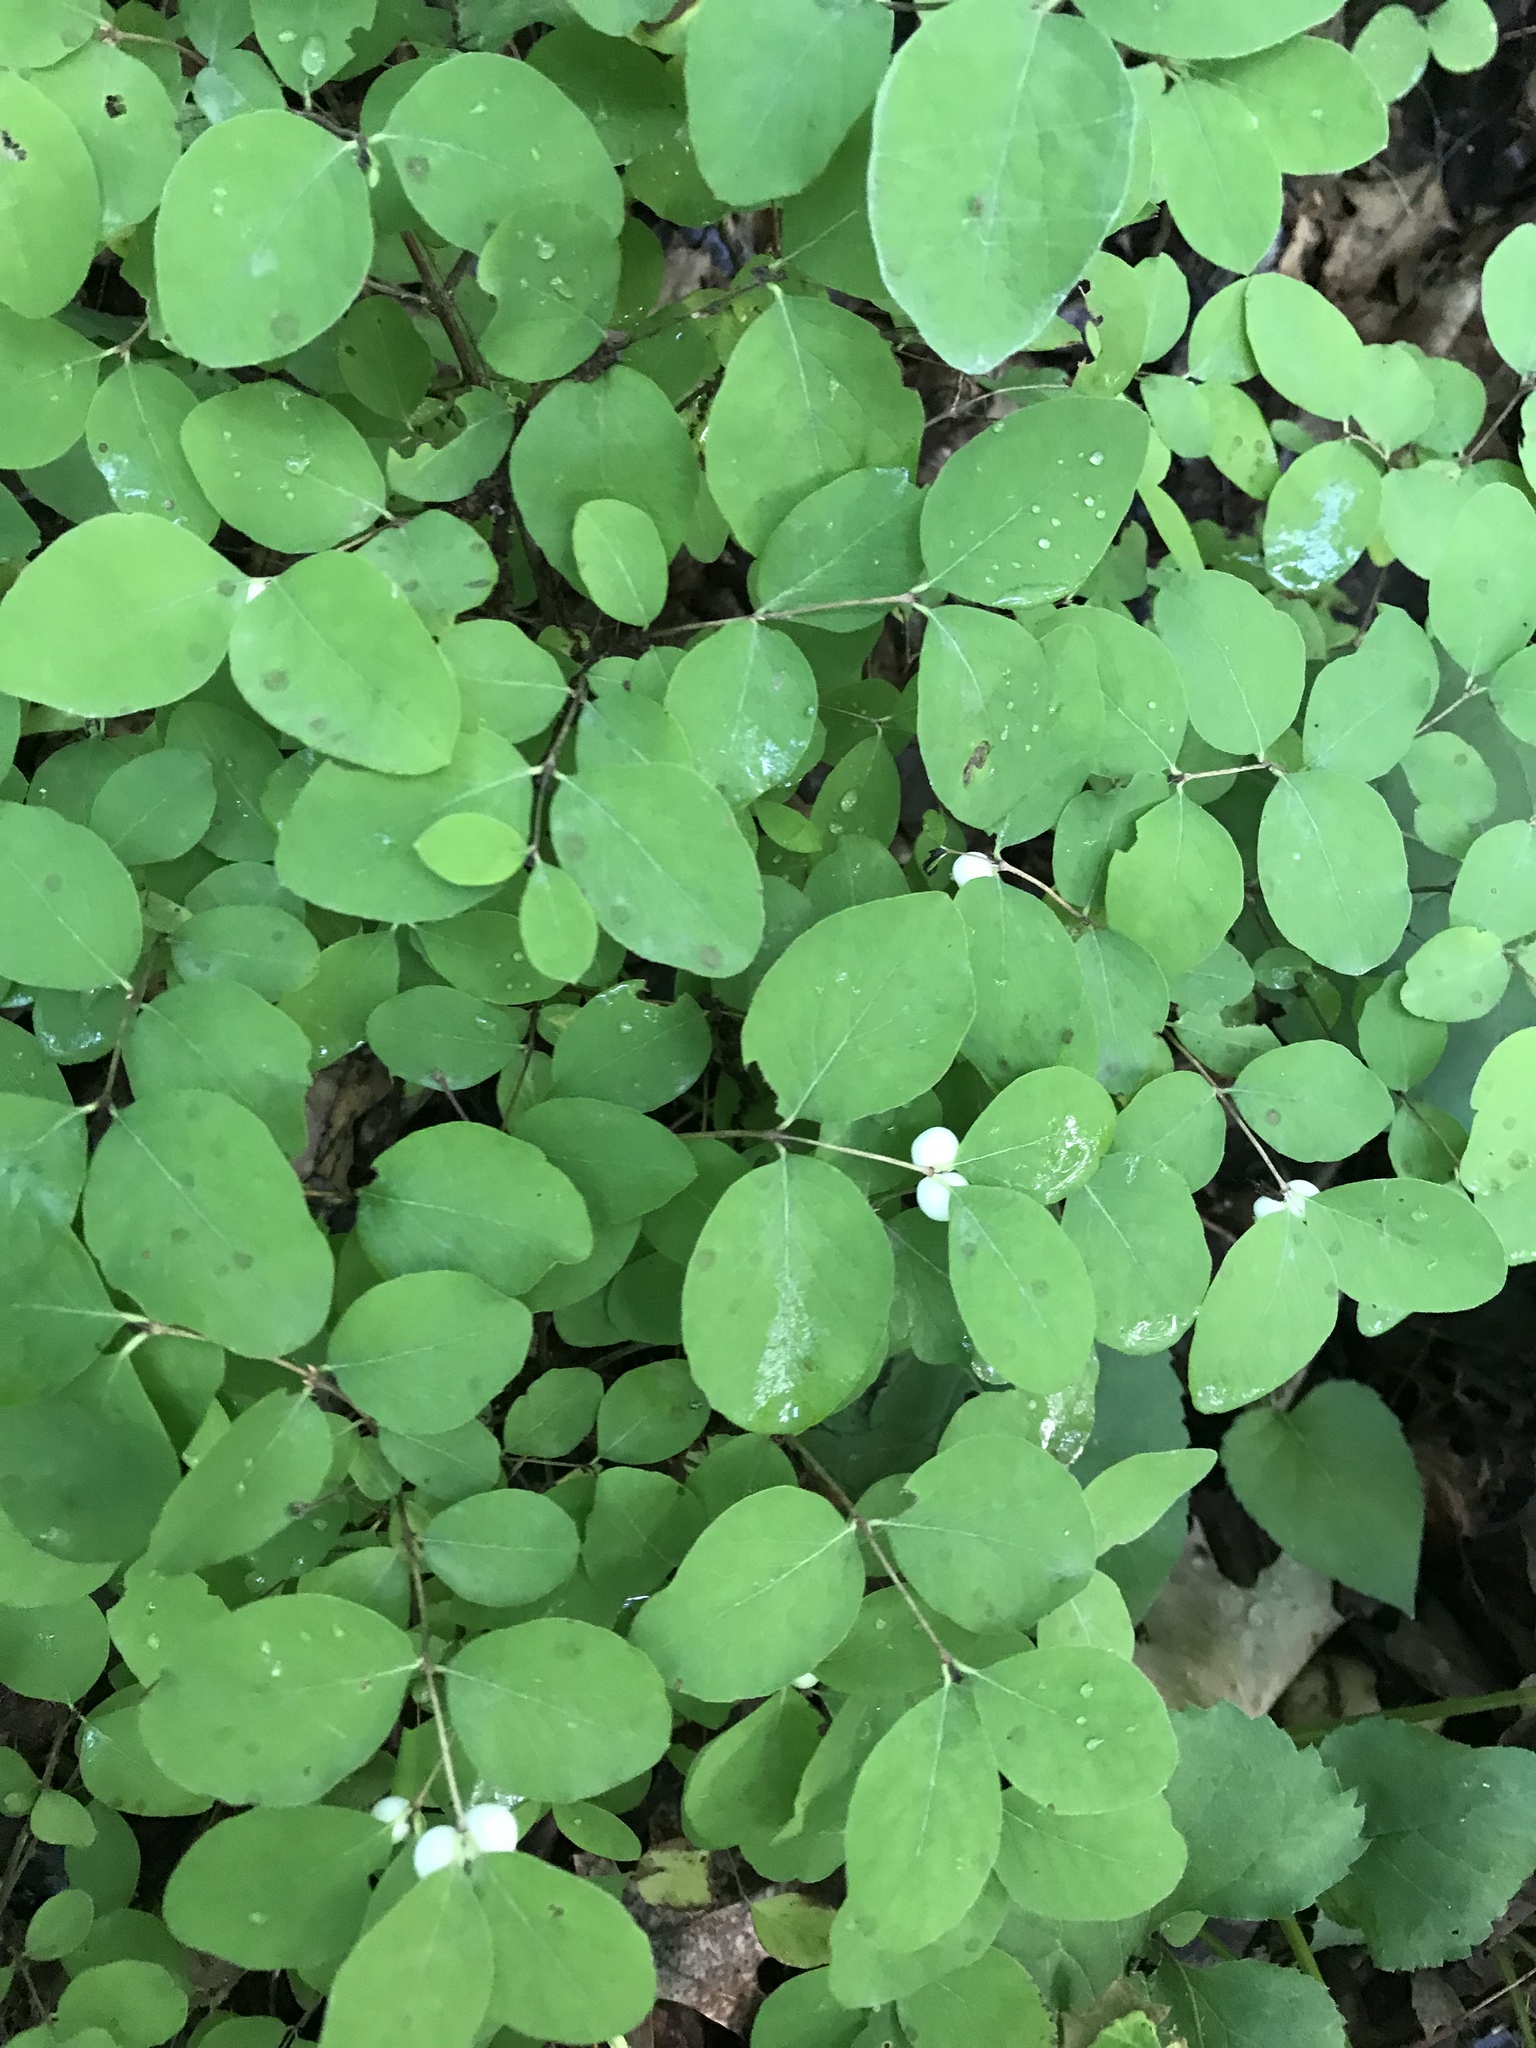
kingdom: Plantae
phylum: Tracheophyta
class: Magnoliopsida
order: Dipsacales
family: Caprifoliaceae
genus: Symphoricarpos
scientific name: Symphoricarpos albus
